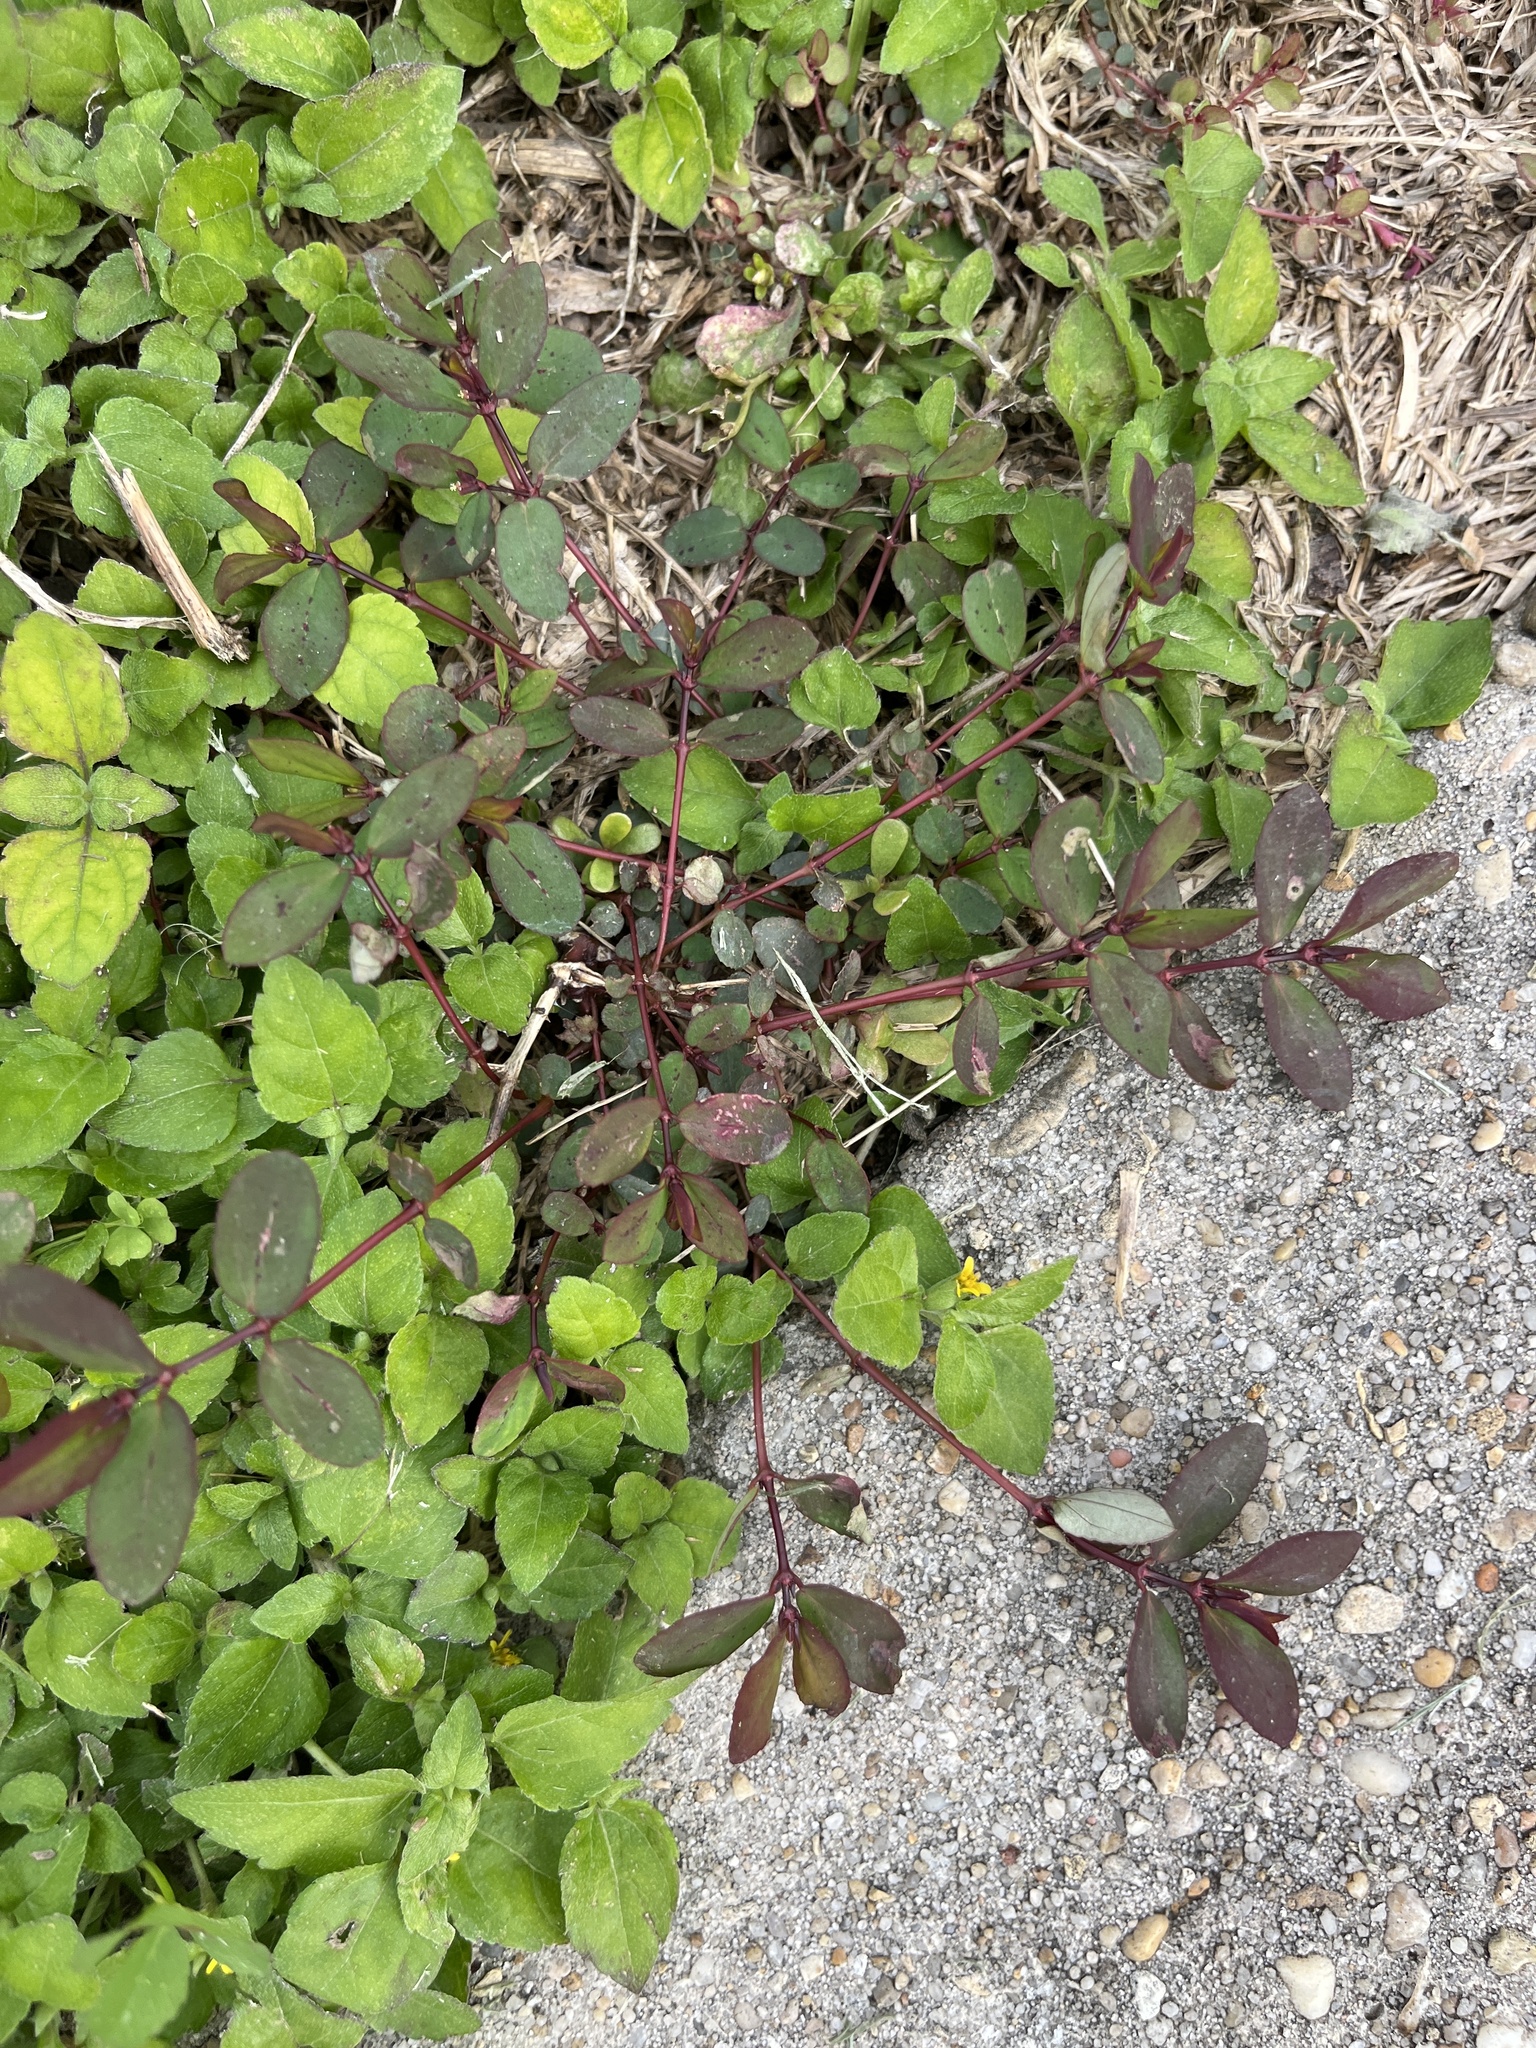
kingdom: Plantae
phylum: Tracheophyta
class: Magnoliopsida
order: Lamiales
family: Verbenaceae
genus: Phyla
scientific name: Phyla nodiflora
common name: Frogfruit
